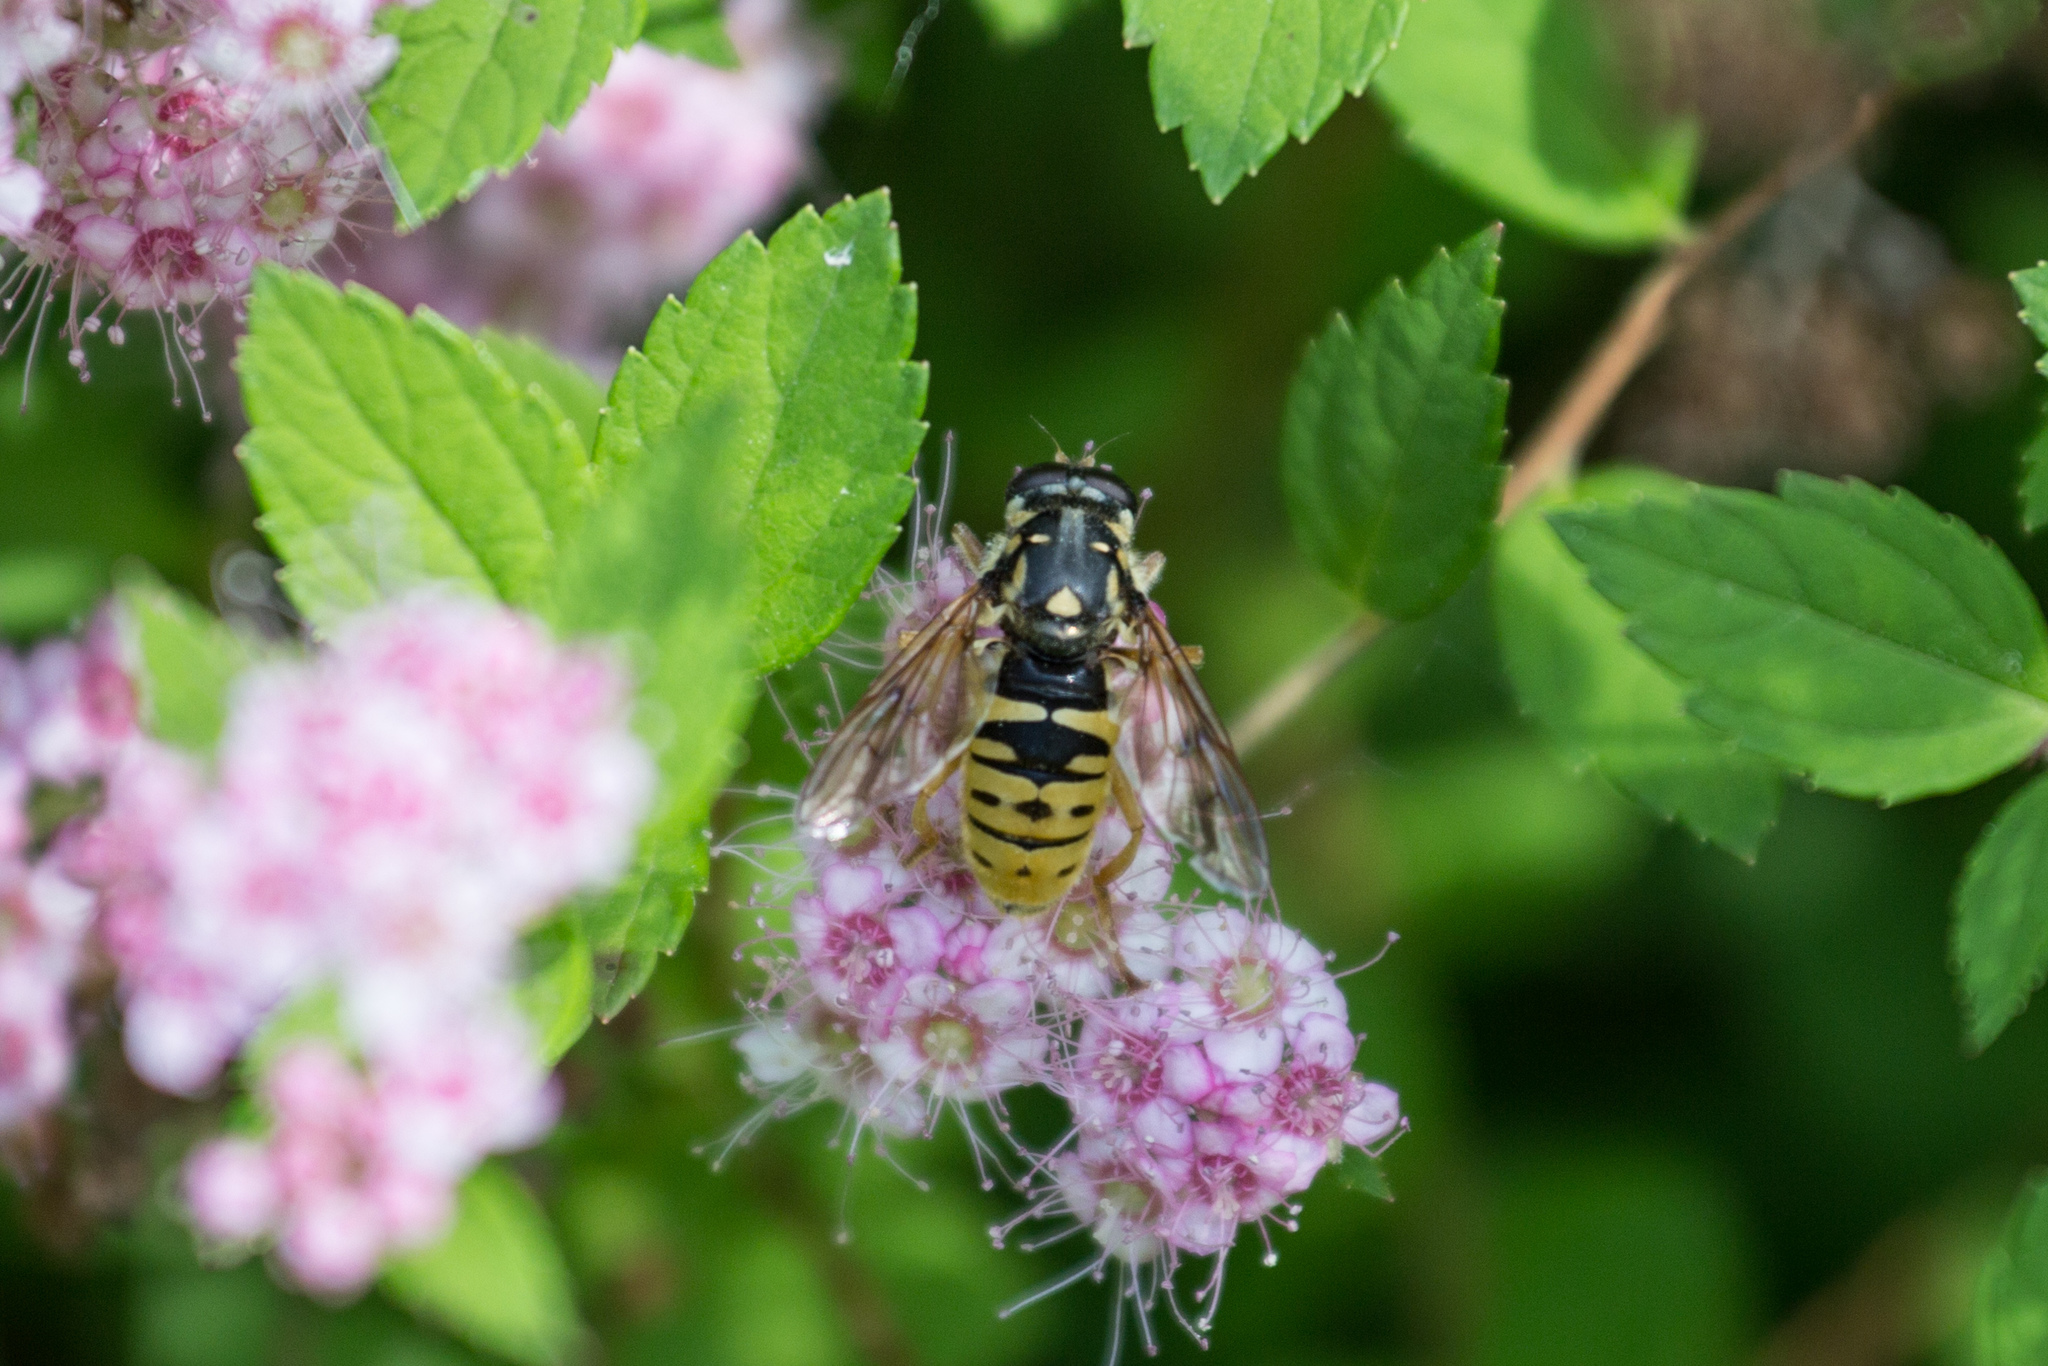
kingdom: Animalia
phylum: Arthropoda
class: Insecta
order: Diptera
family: Syrphidae
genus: Temnostoma
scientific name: Temnostoma alternans
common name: Wasp-like falsehorn
